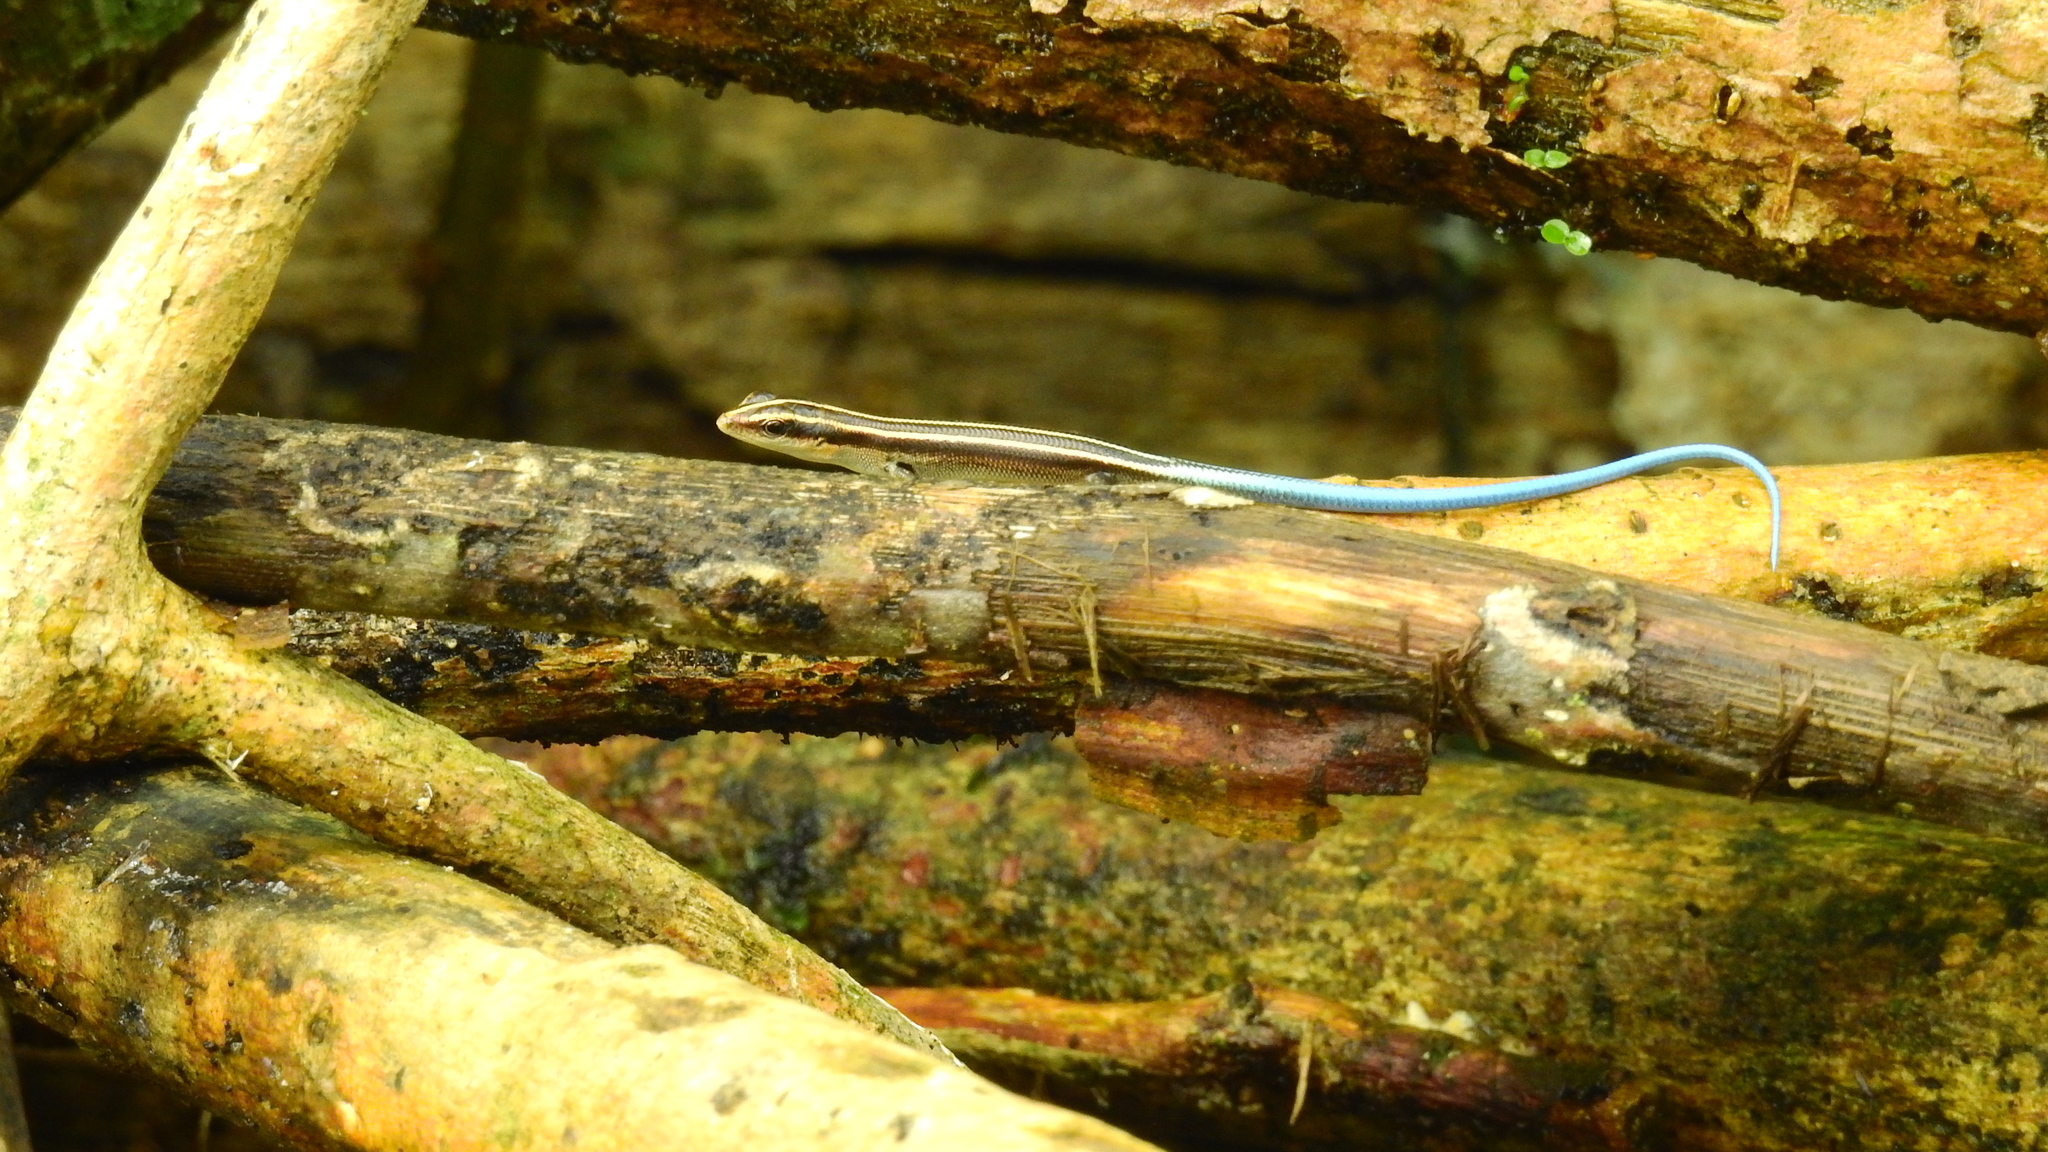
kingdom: Animalia
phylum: Chordata
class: Squamata
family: Scincidae
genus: Emoia
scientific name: Emoia caeruleocauda
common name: Pacific bluetail skink
